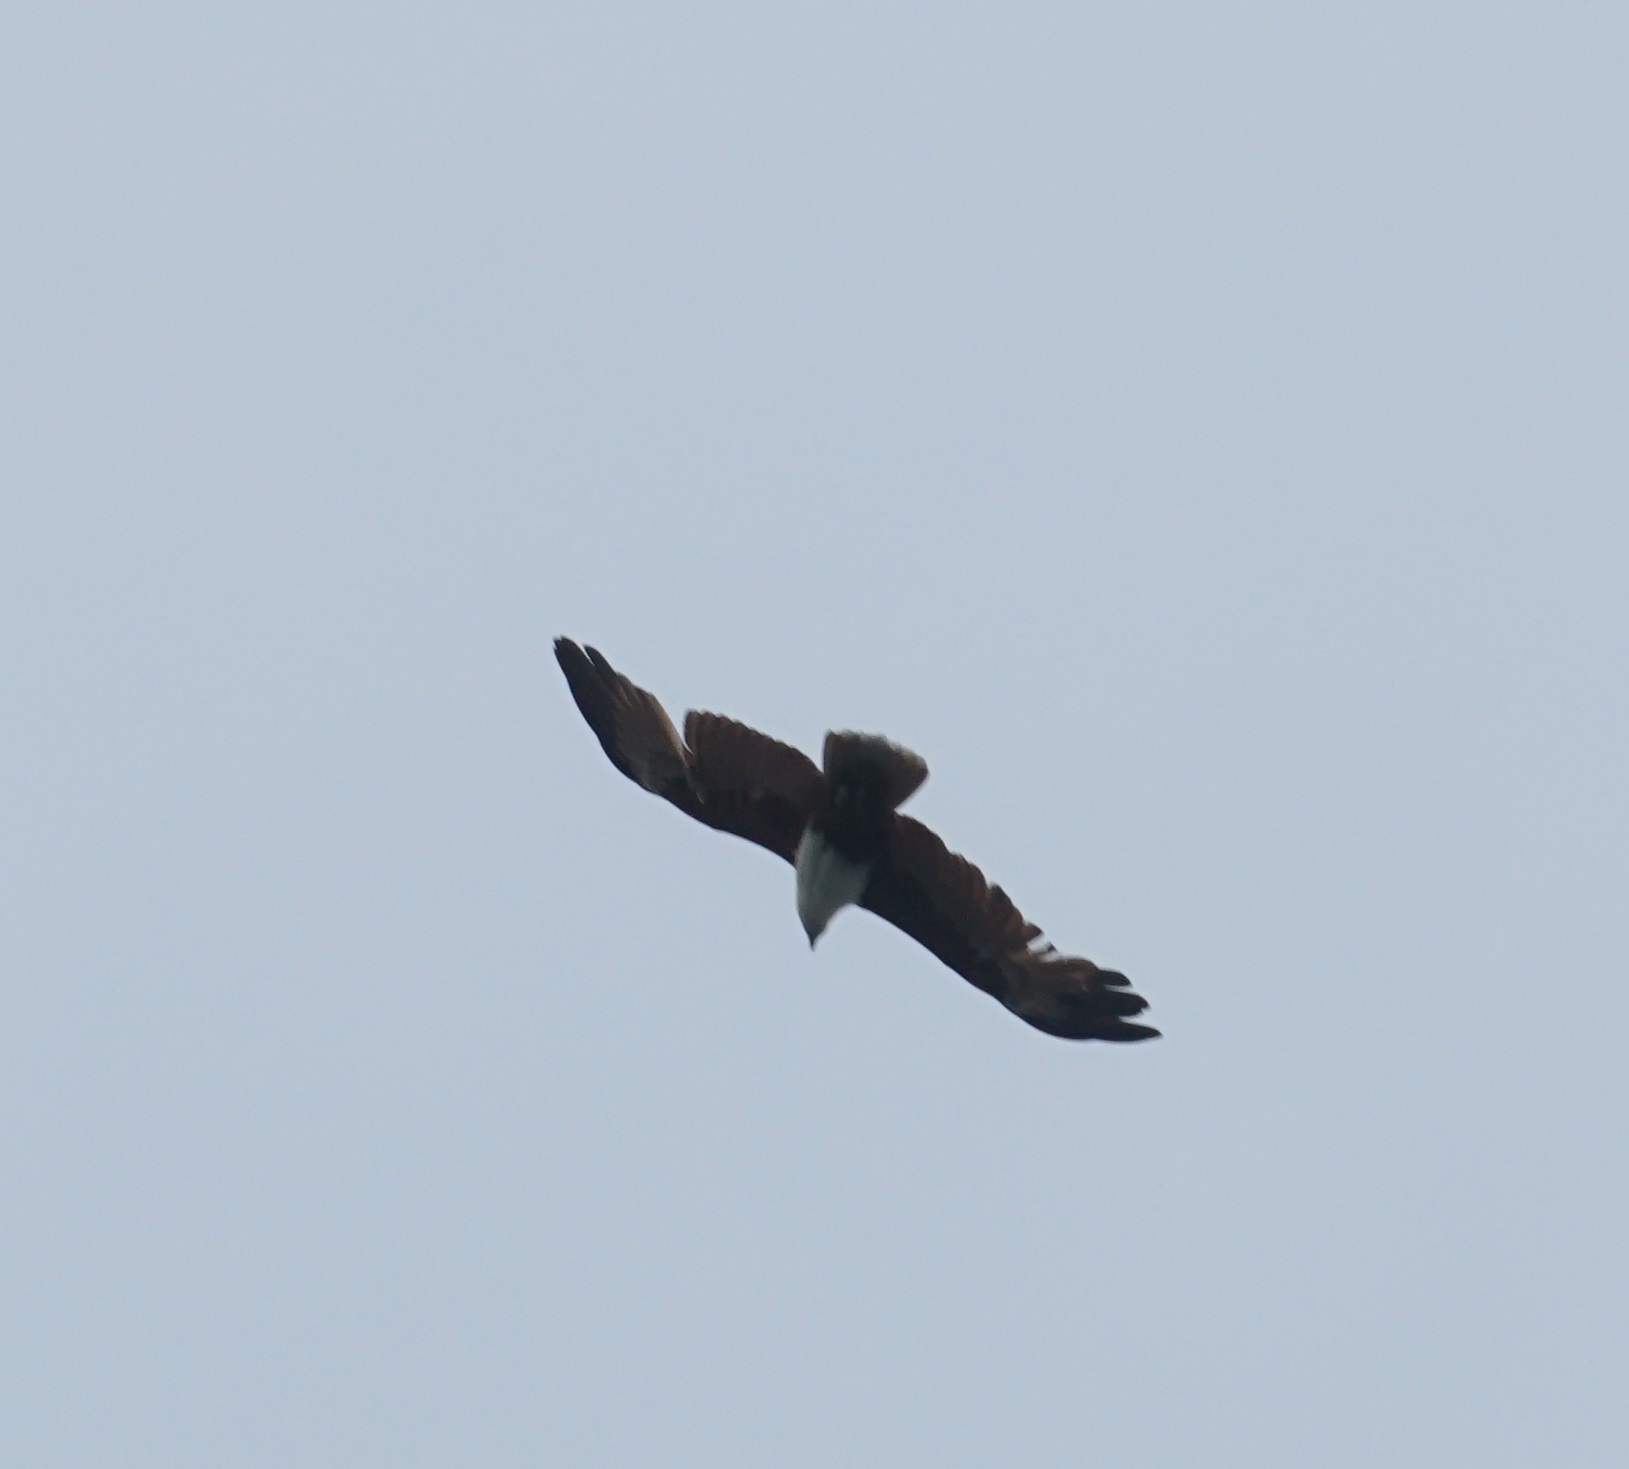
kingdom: Animalia
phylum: Chordata
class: Aves
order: Accipitriformes
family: Accipitridae
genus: Haliastur
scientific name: Haliastur indus
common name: Brahminy kite
